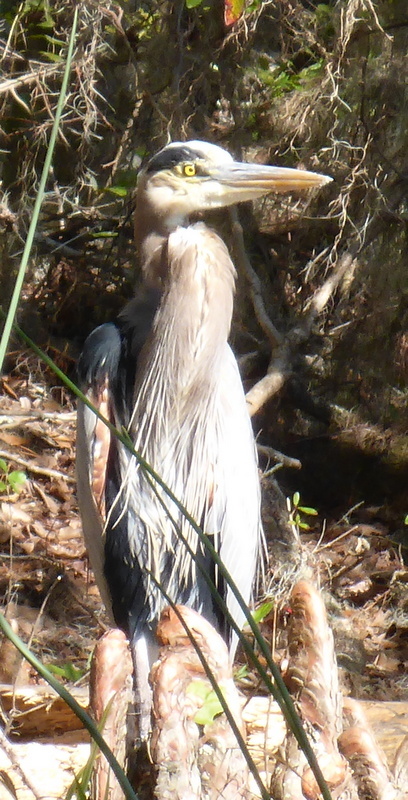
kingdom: Animalia
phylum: Chordata
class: Aves
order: Pelecaniformes
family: Ardeidae
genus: Ardea
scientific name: Ardea herodias
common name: Great blue heron
